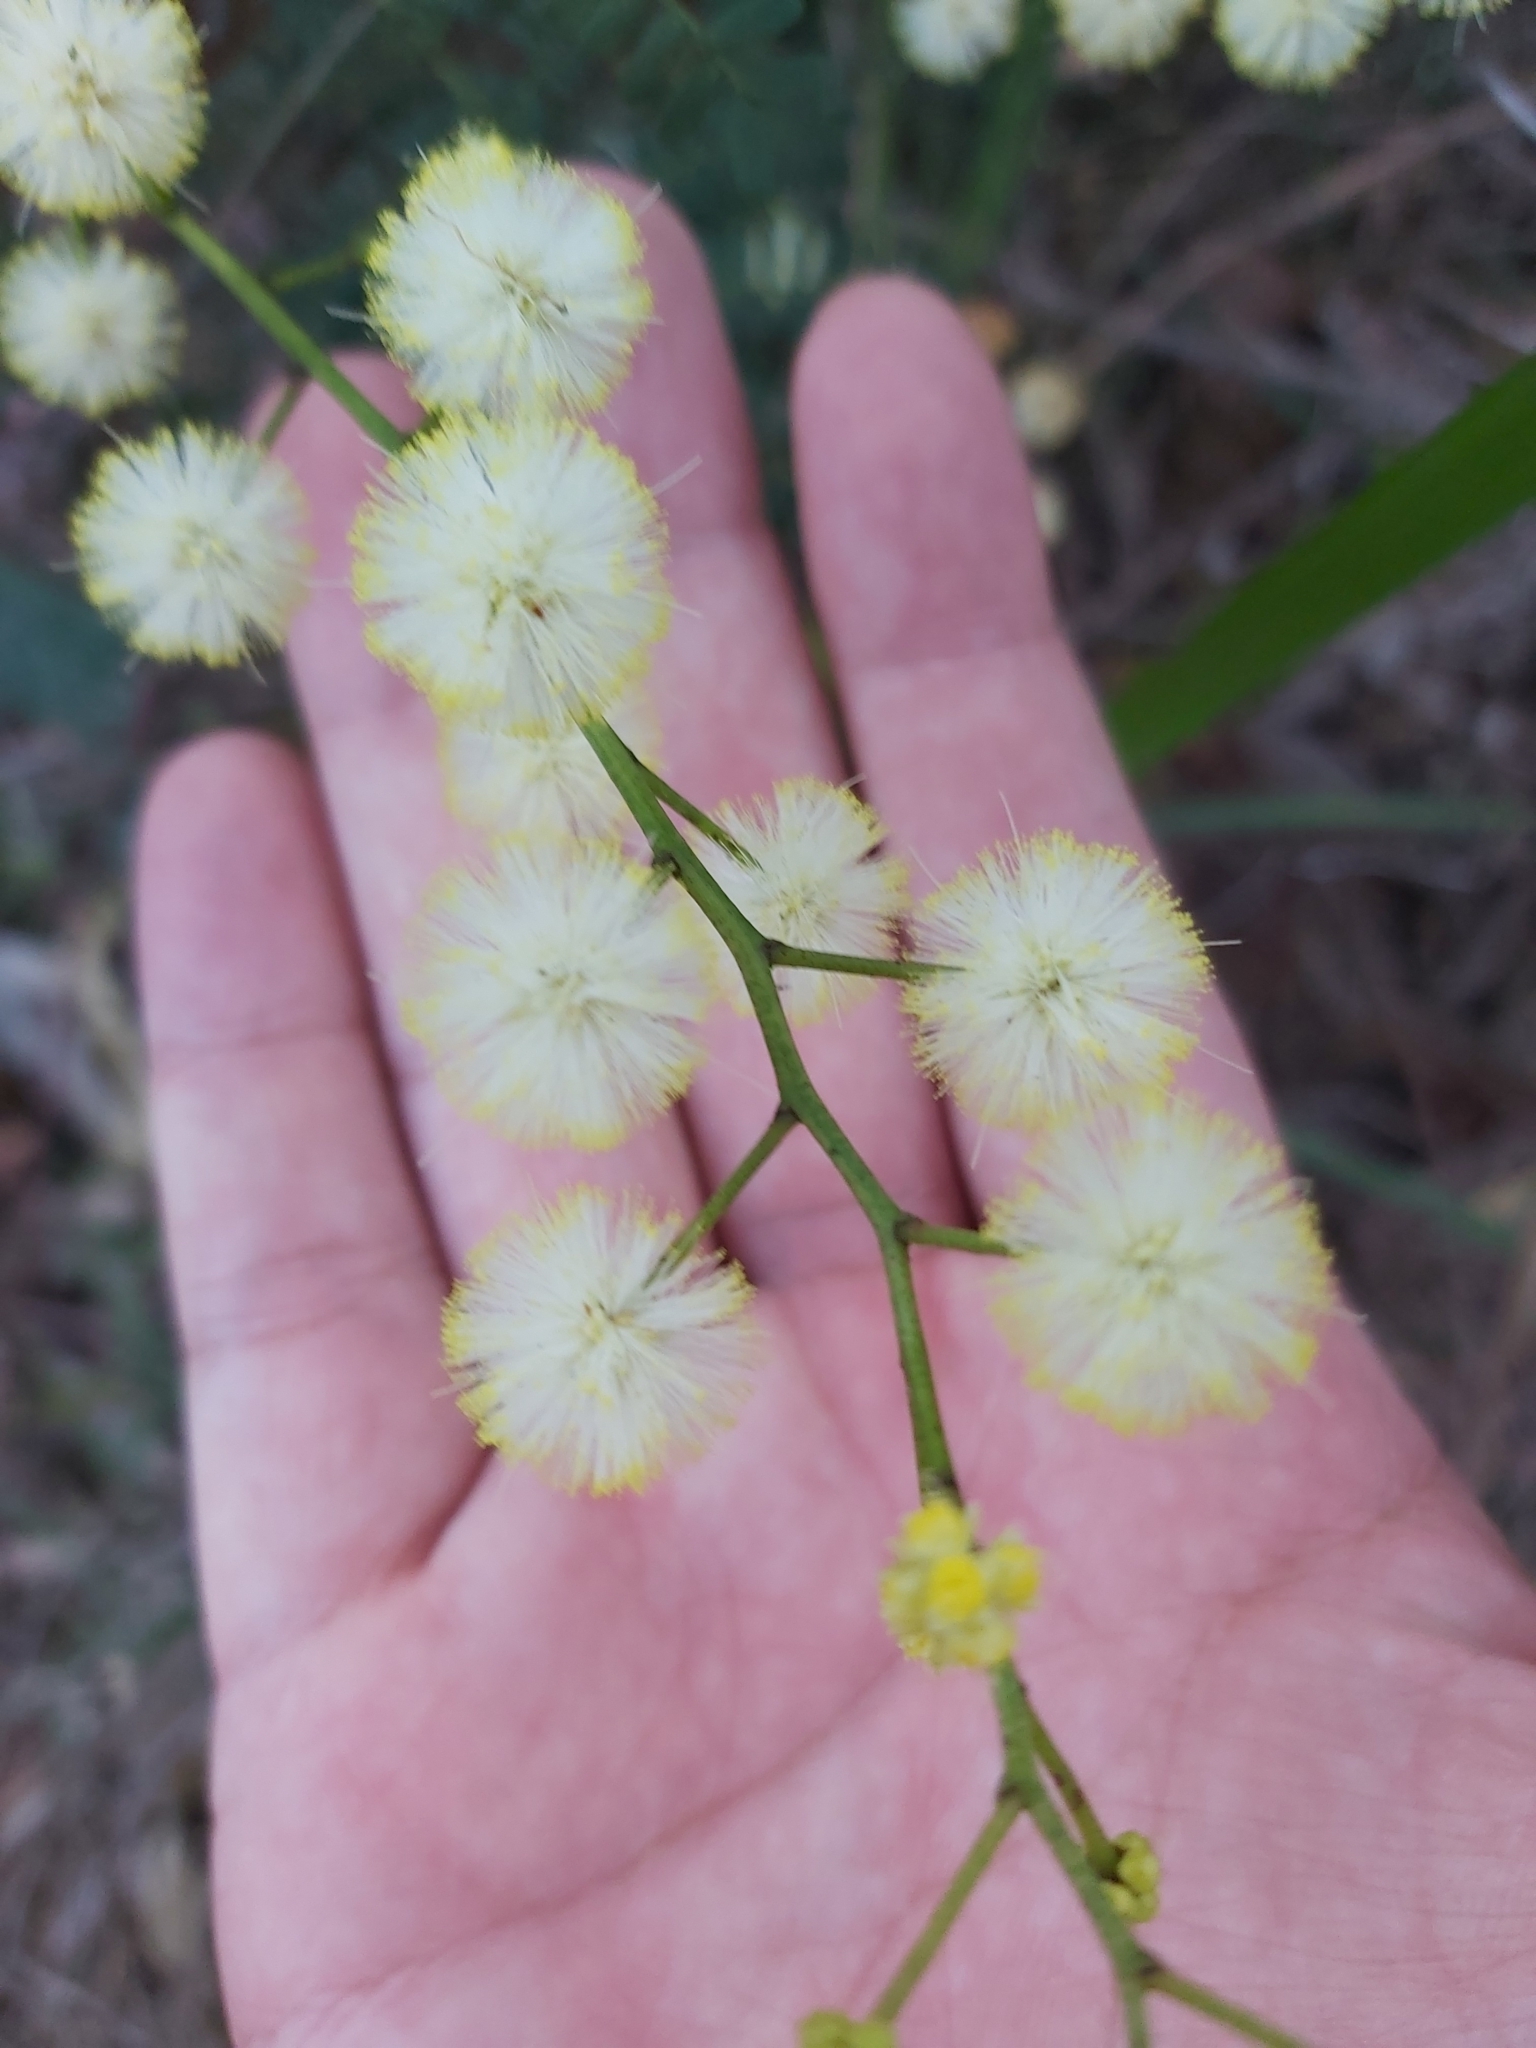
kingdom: Plantae
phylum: Tracheophyta
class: Magnoliopsida
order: Fabales
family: Fabaceae
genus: Acacia
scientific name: Acacia terminalis
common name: Cedar wattle
